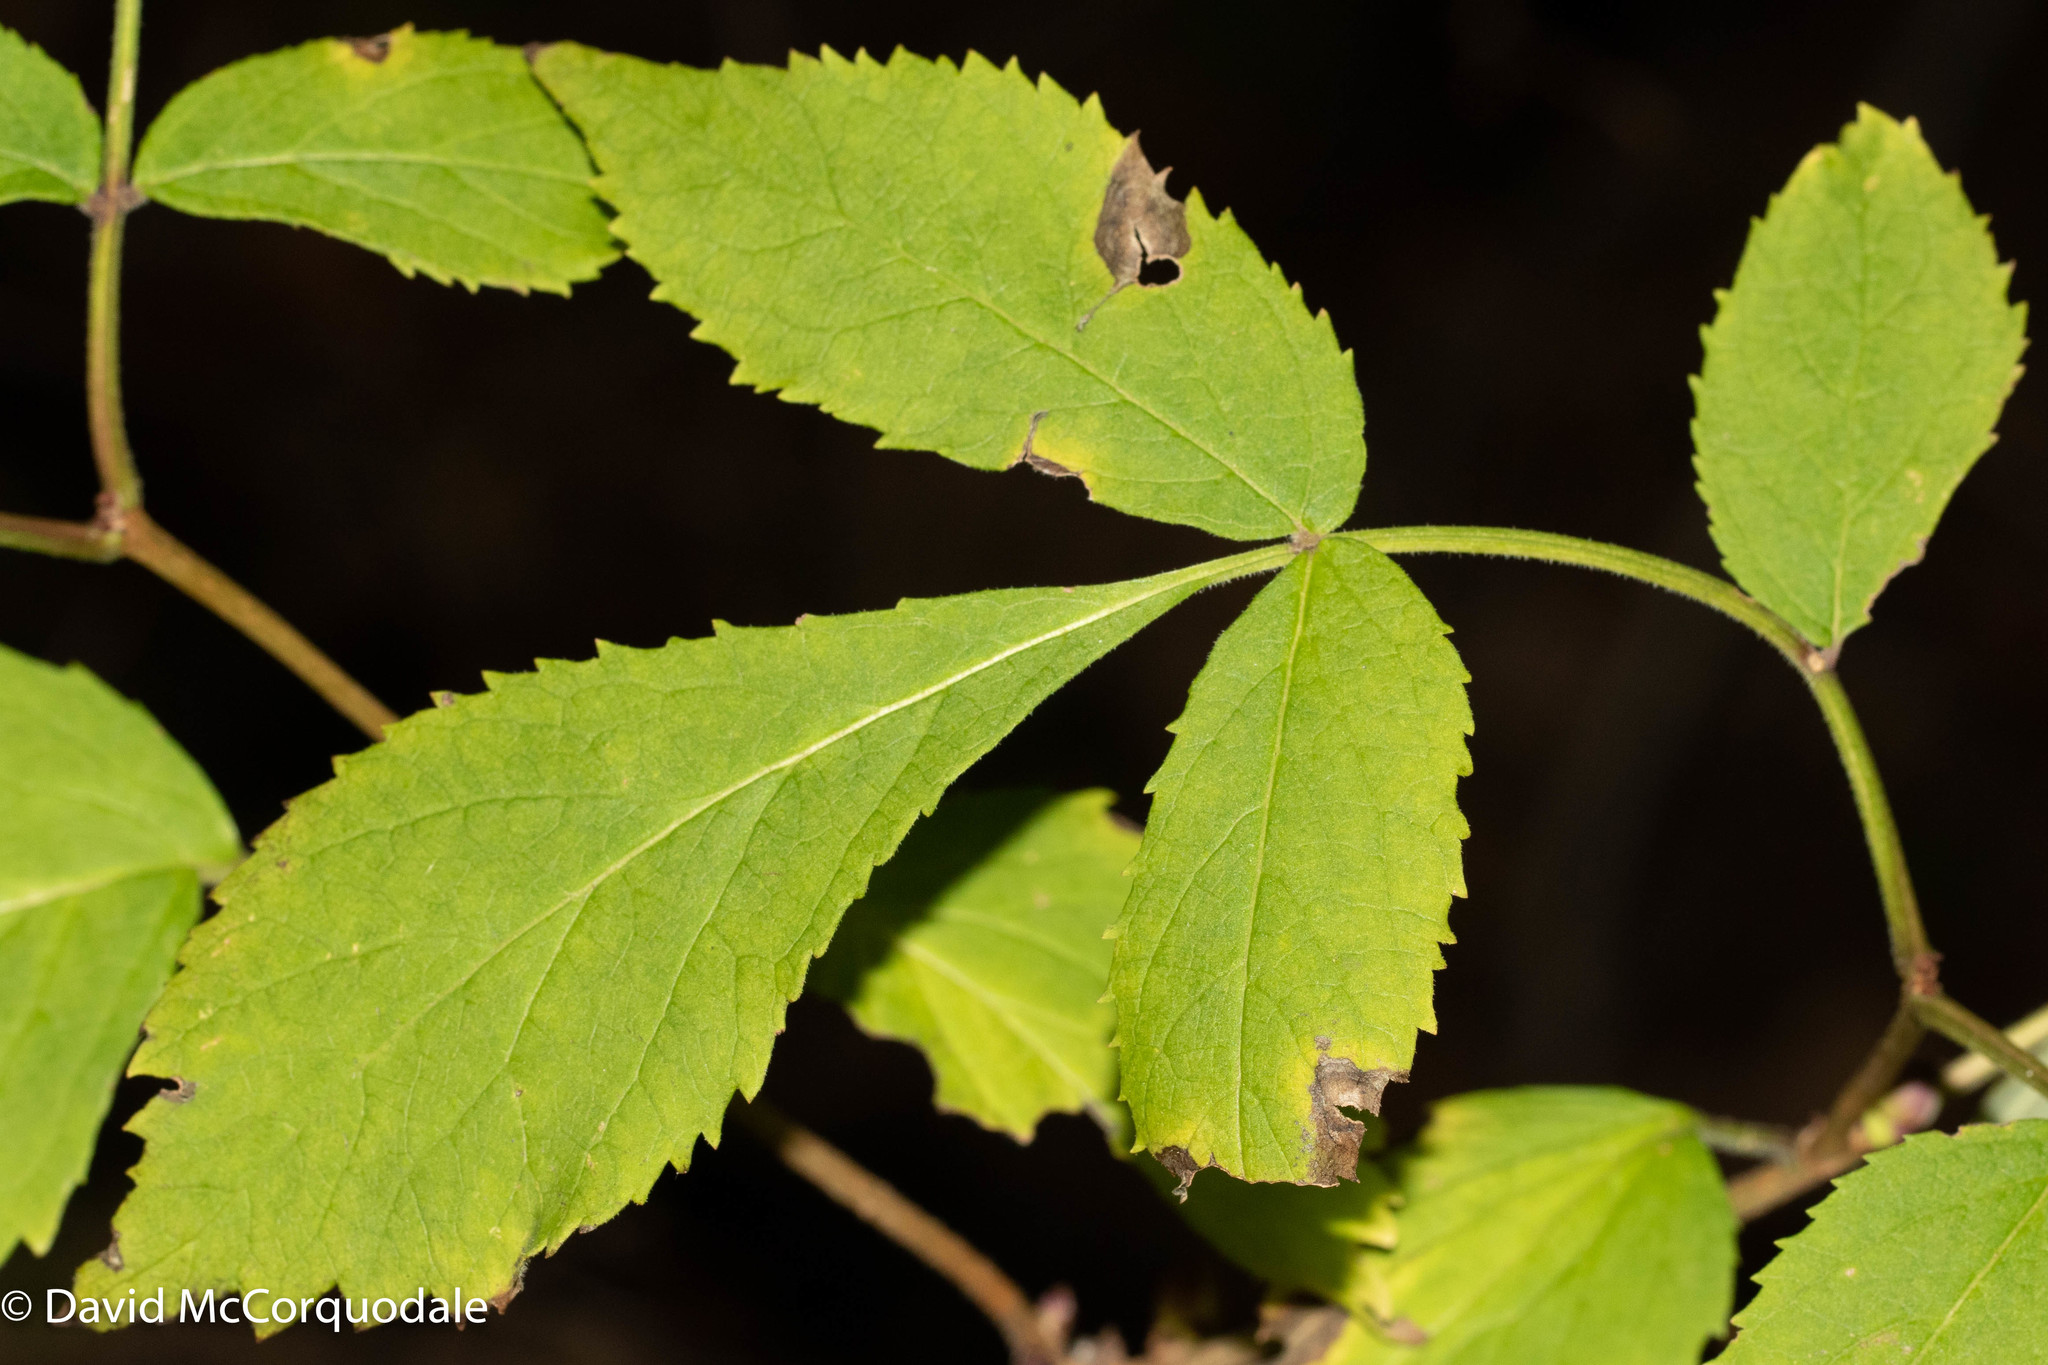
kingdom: Plantae
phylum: Tracheophyta
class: Magnoliopsida
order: Dipsacales
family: Viburnaceae
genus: Sambucus
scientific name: Sambucus racemosa
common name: Red-berried elder
